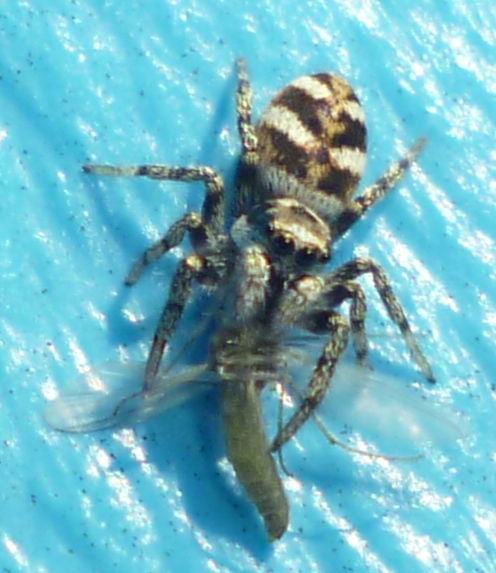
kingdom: Animalia
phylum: Arthropoda
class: Arachnida
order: Araneae
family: Salticidae
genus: Salticus
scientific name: Salticus scenicus
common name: Zebra jumper
